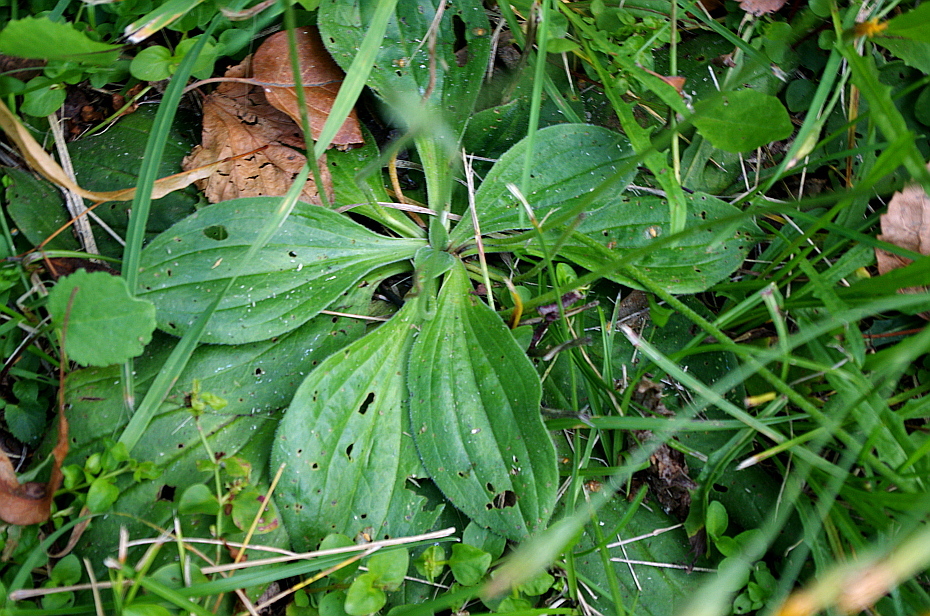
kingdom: Plantae
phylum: Tracheophyta
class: Magnoliopsida
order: Lamiales
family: Plantaginaceae
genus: Plantago
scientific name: Plantago media
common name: Hoary plantain
